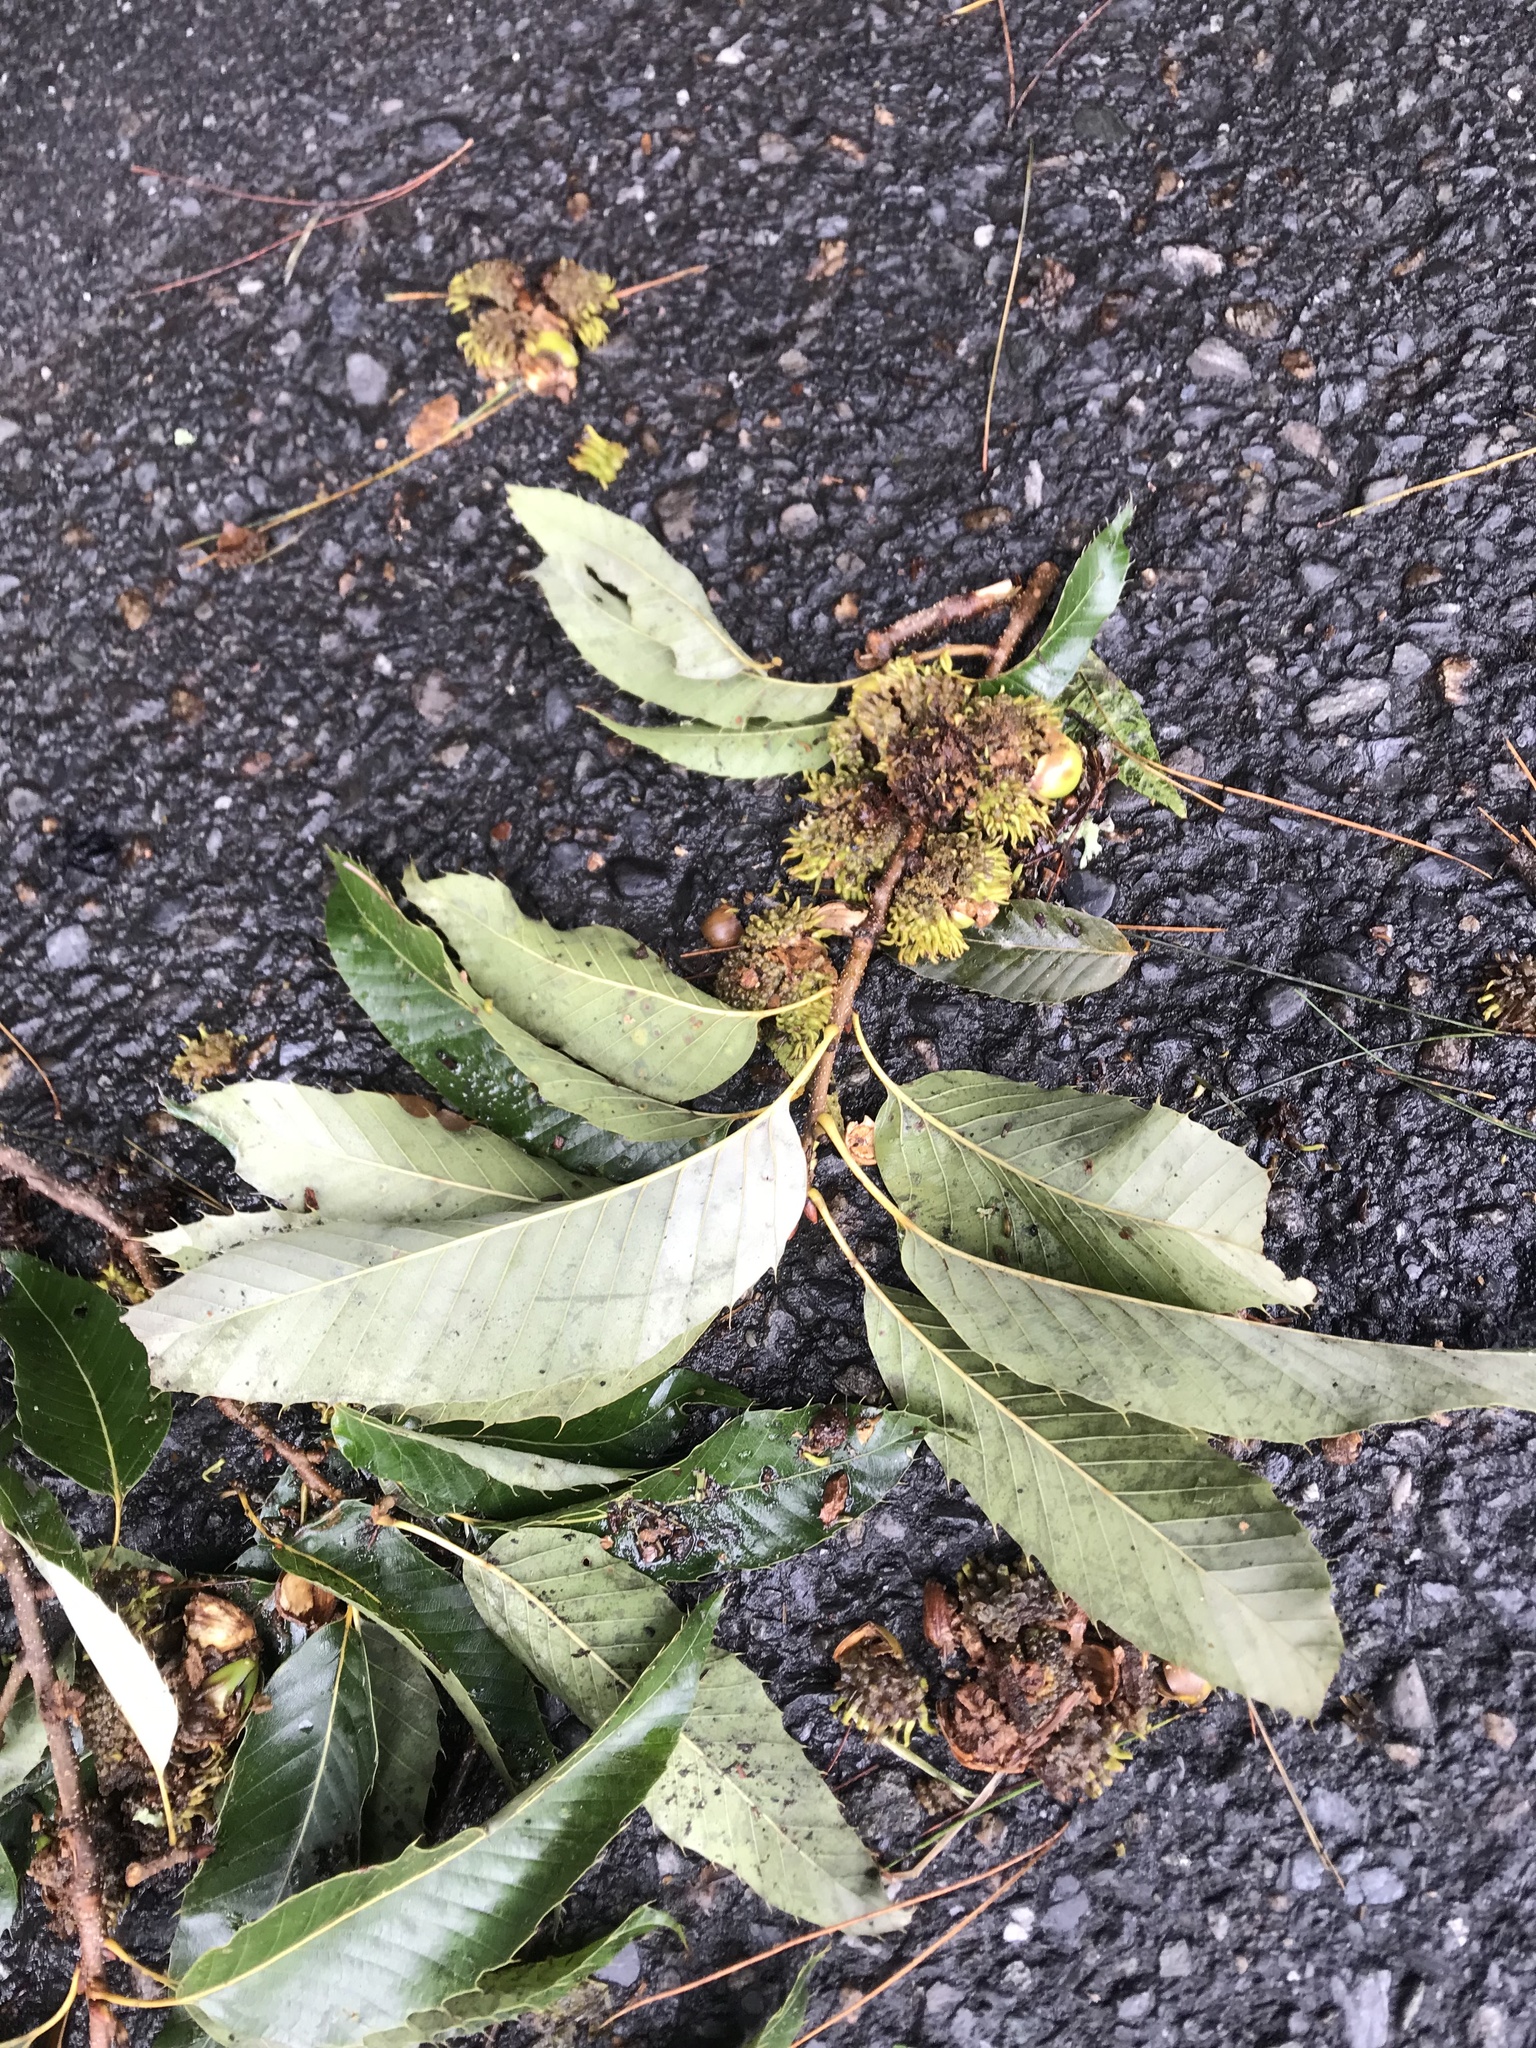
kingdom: Plantae
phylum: Tracheophyta
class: Magnoliopsida
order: Fagales
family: Fagaceae
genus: Quercus
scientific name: Quercus variabilis
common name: Chinese cork oak
